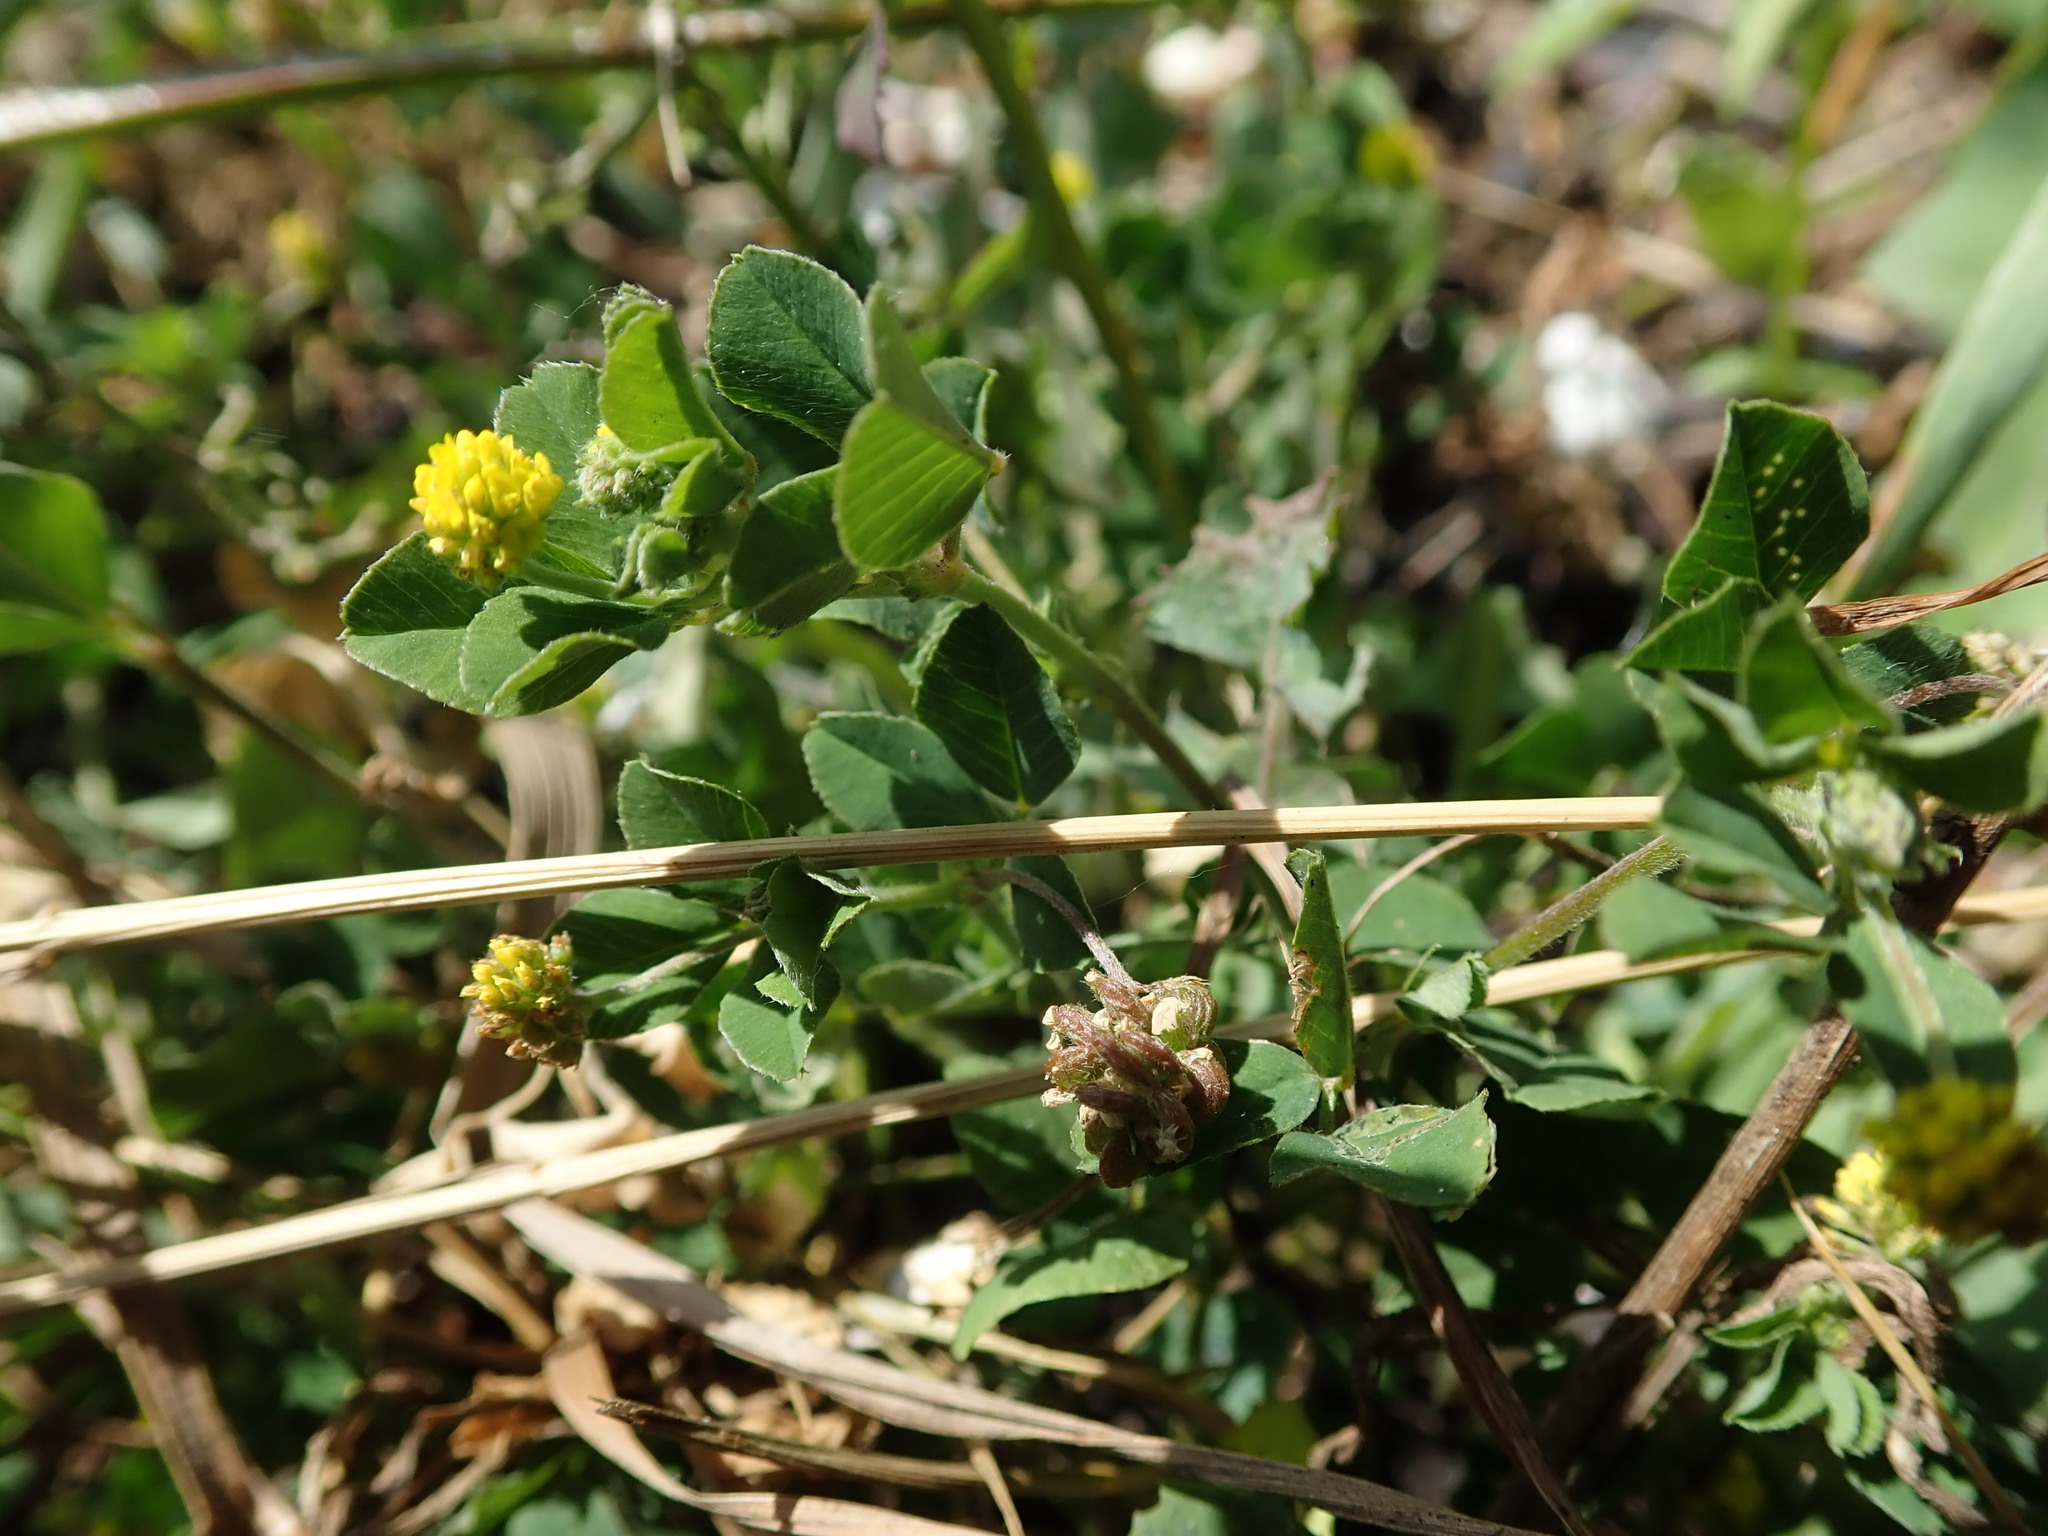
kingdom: Plantae
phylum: Tracheophyta
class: Magnoliopsida
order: Fabales
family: Fabaceae
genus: Medicago
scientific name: Medicago lupulina
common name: Black medick
